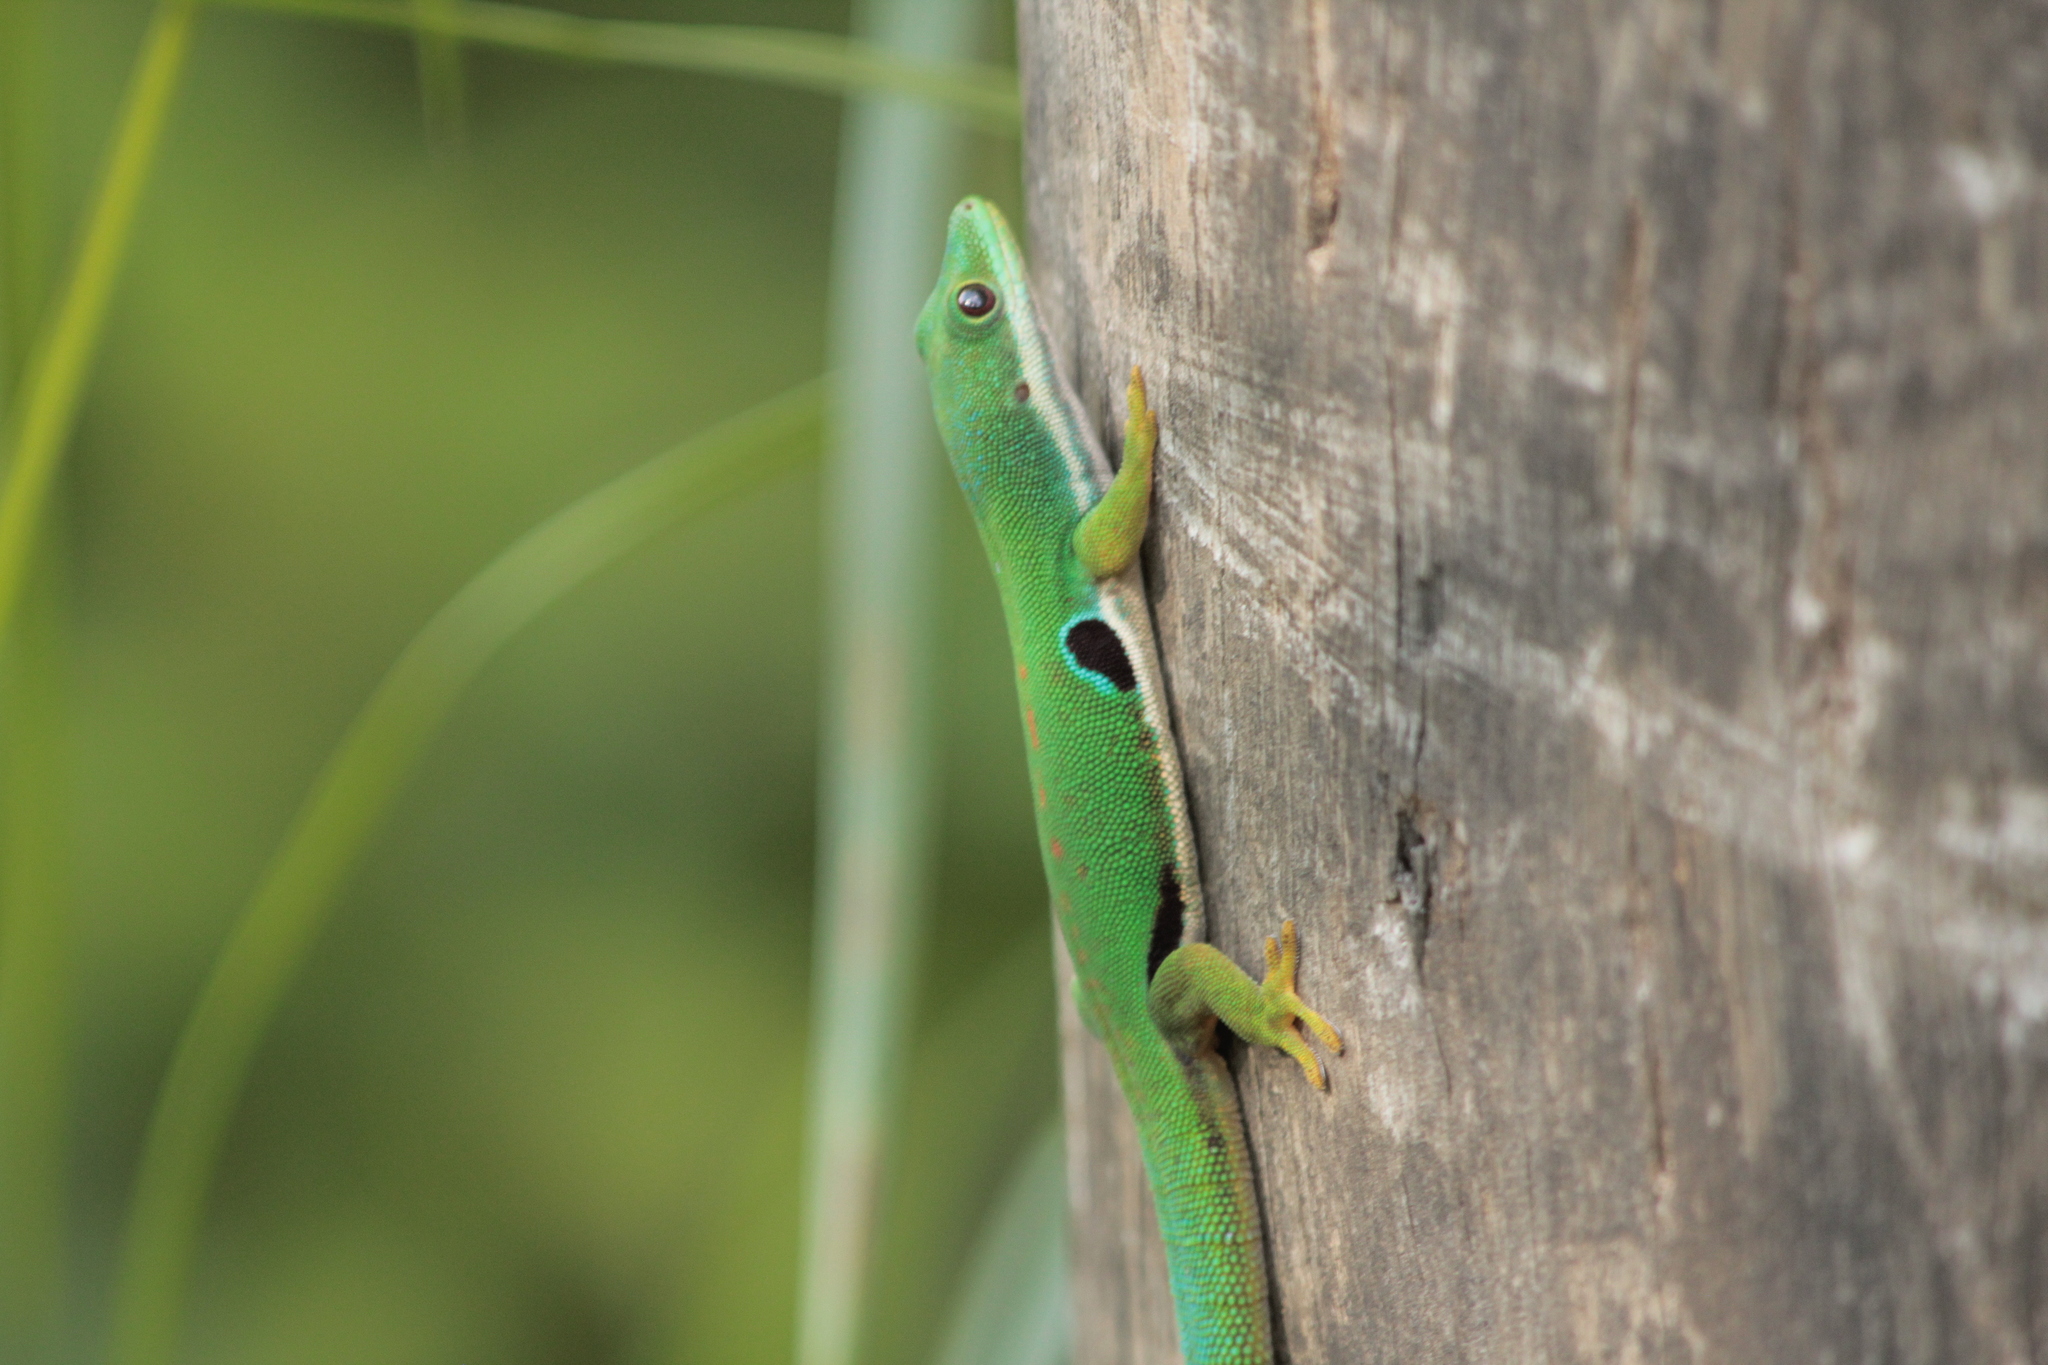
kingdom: Animalia
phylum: Chordata
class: Squamata
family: Gekkonidae
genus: Phelsuma
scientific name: Phelsuma quadriocellata
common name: Peacock day gecko
